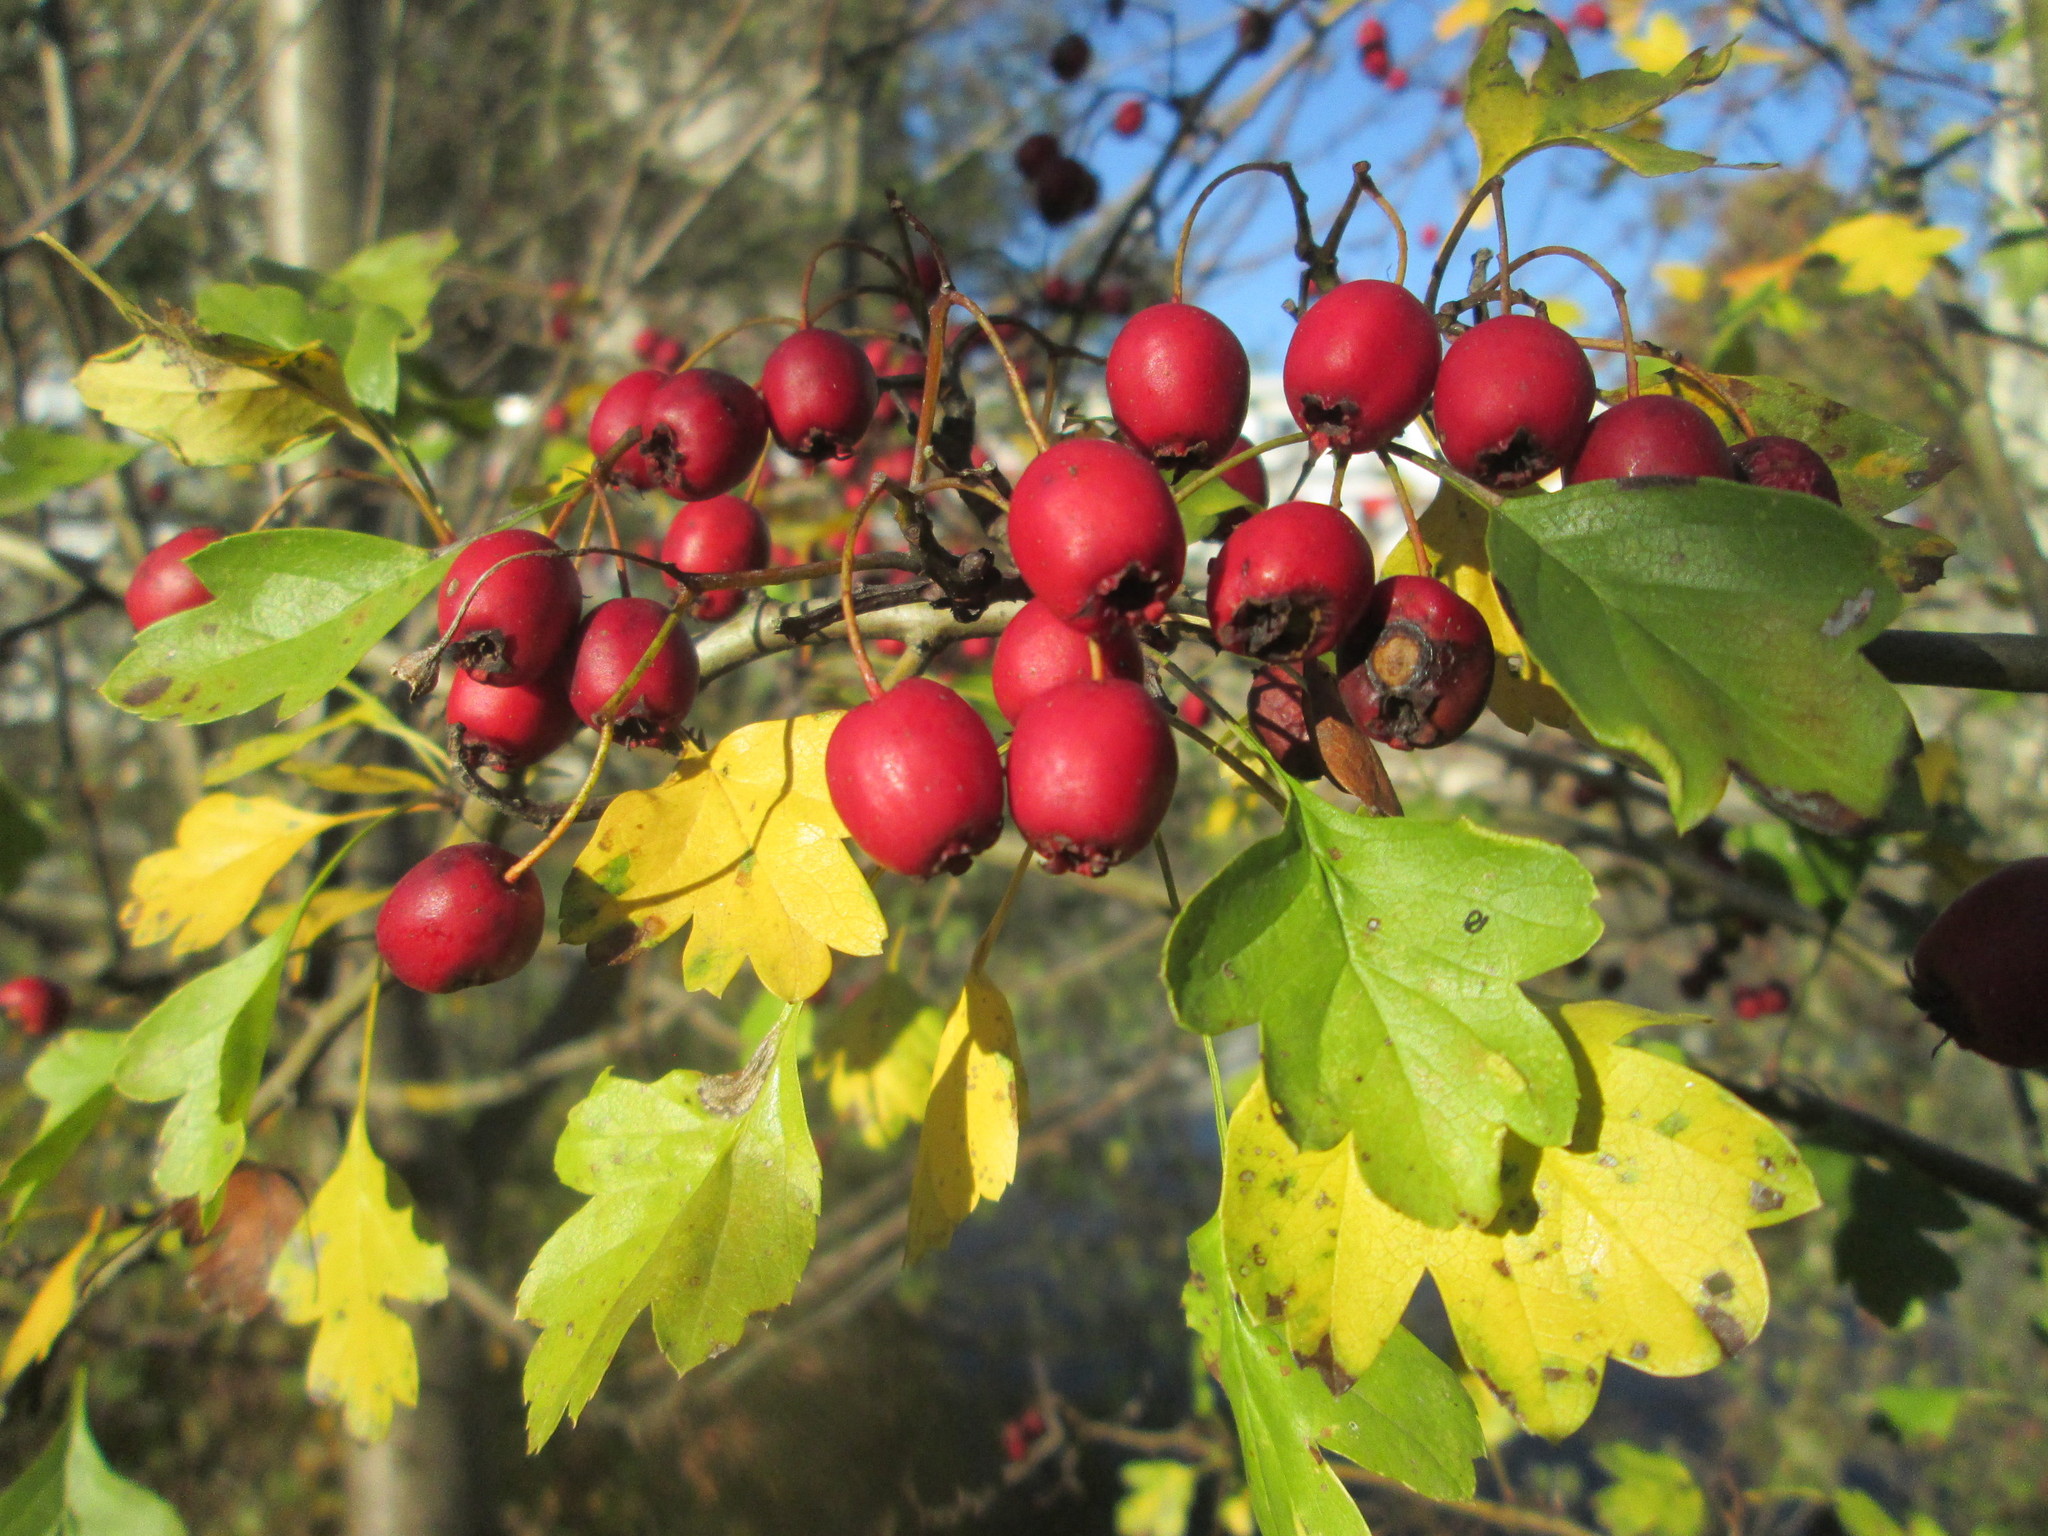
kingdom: Plantae
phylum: Tracheophyta
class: Magnoliopsida
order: Rosales
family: Rosaceae
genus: Crataegus
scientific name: Crataegus monogyna
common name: Hawthorn
